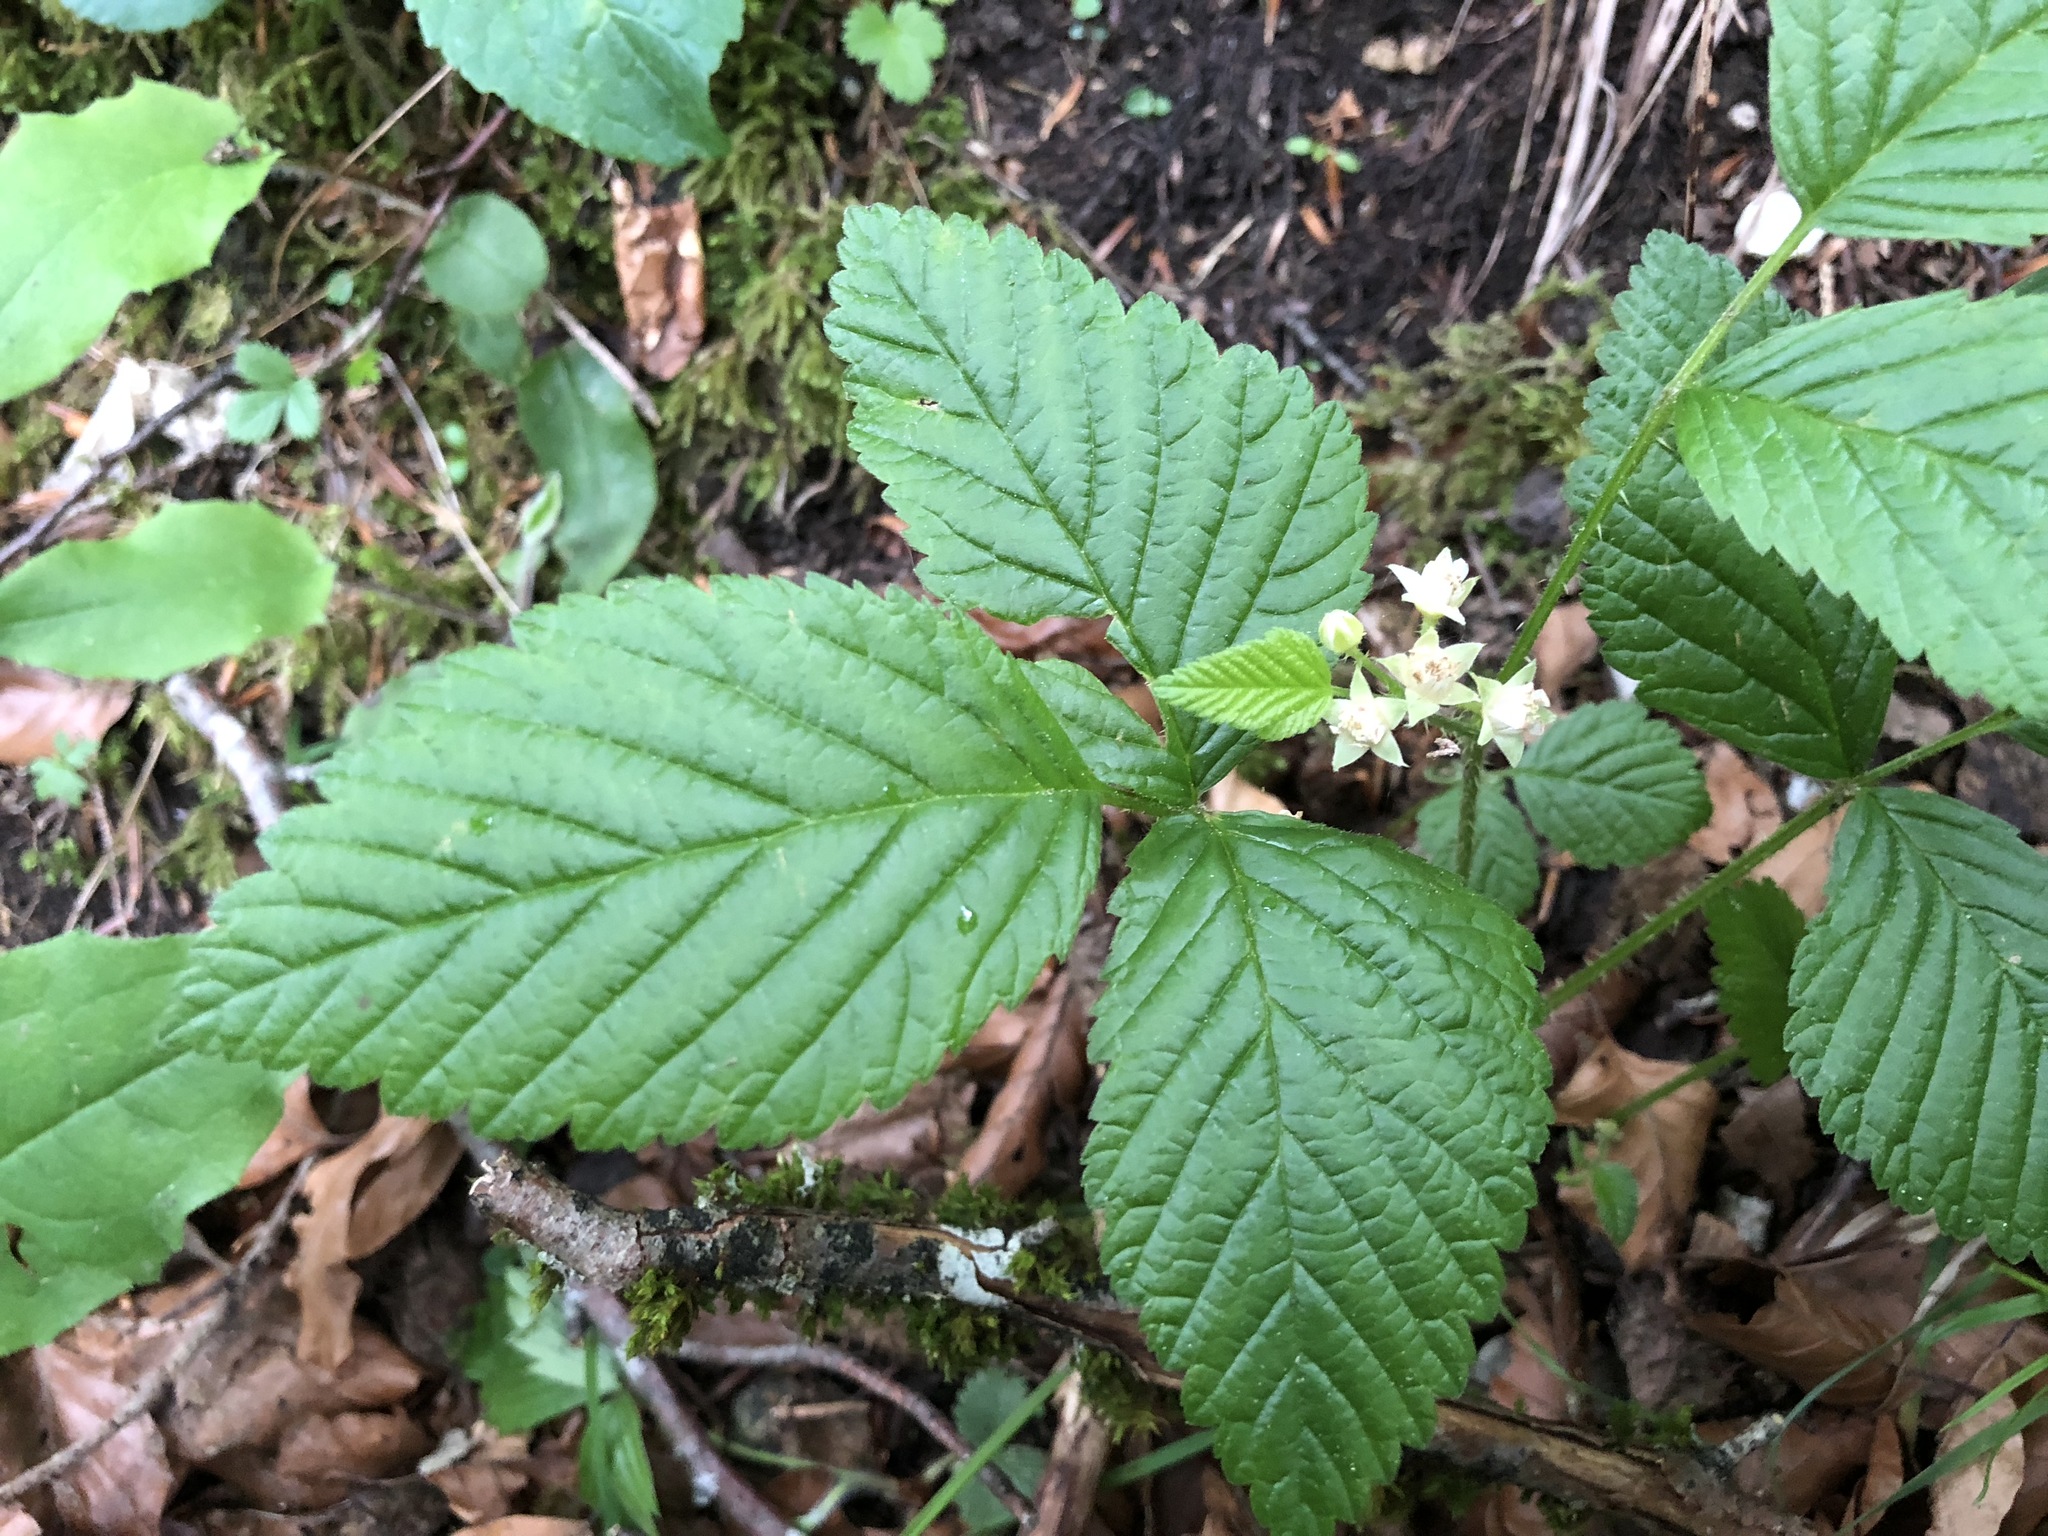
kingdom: Plantae
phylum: Tracheophyta
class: Magnoliopsida
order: Rosales
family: Rosaceae
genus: Rubus
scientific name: Rubus saxatilis
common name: Stone bramble
